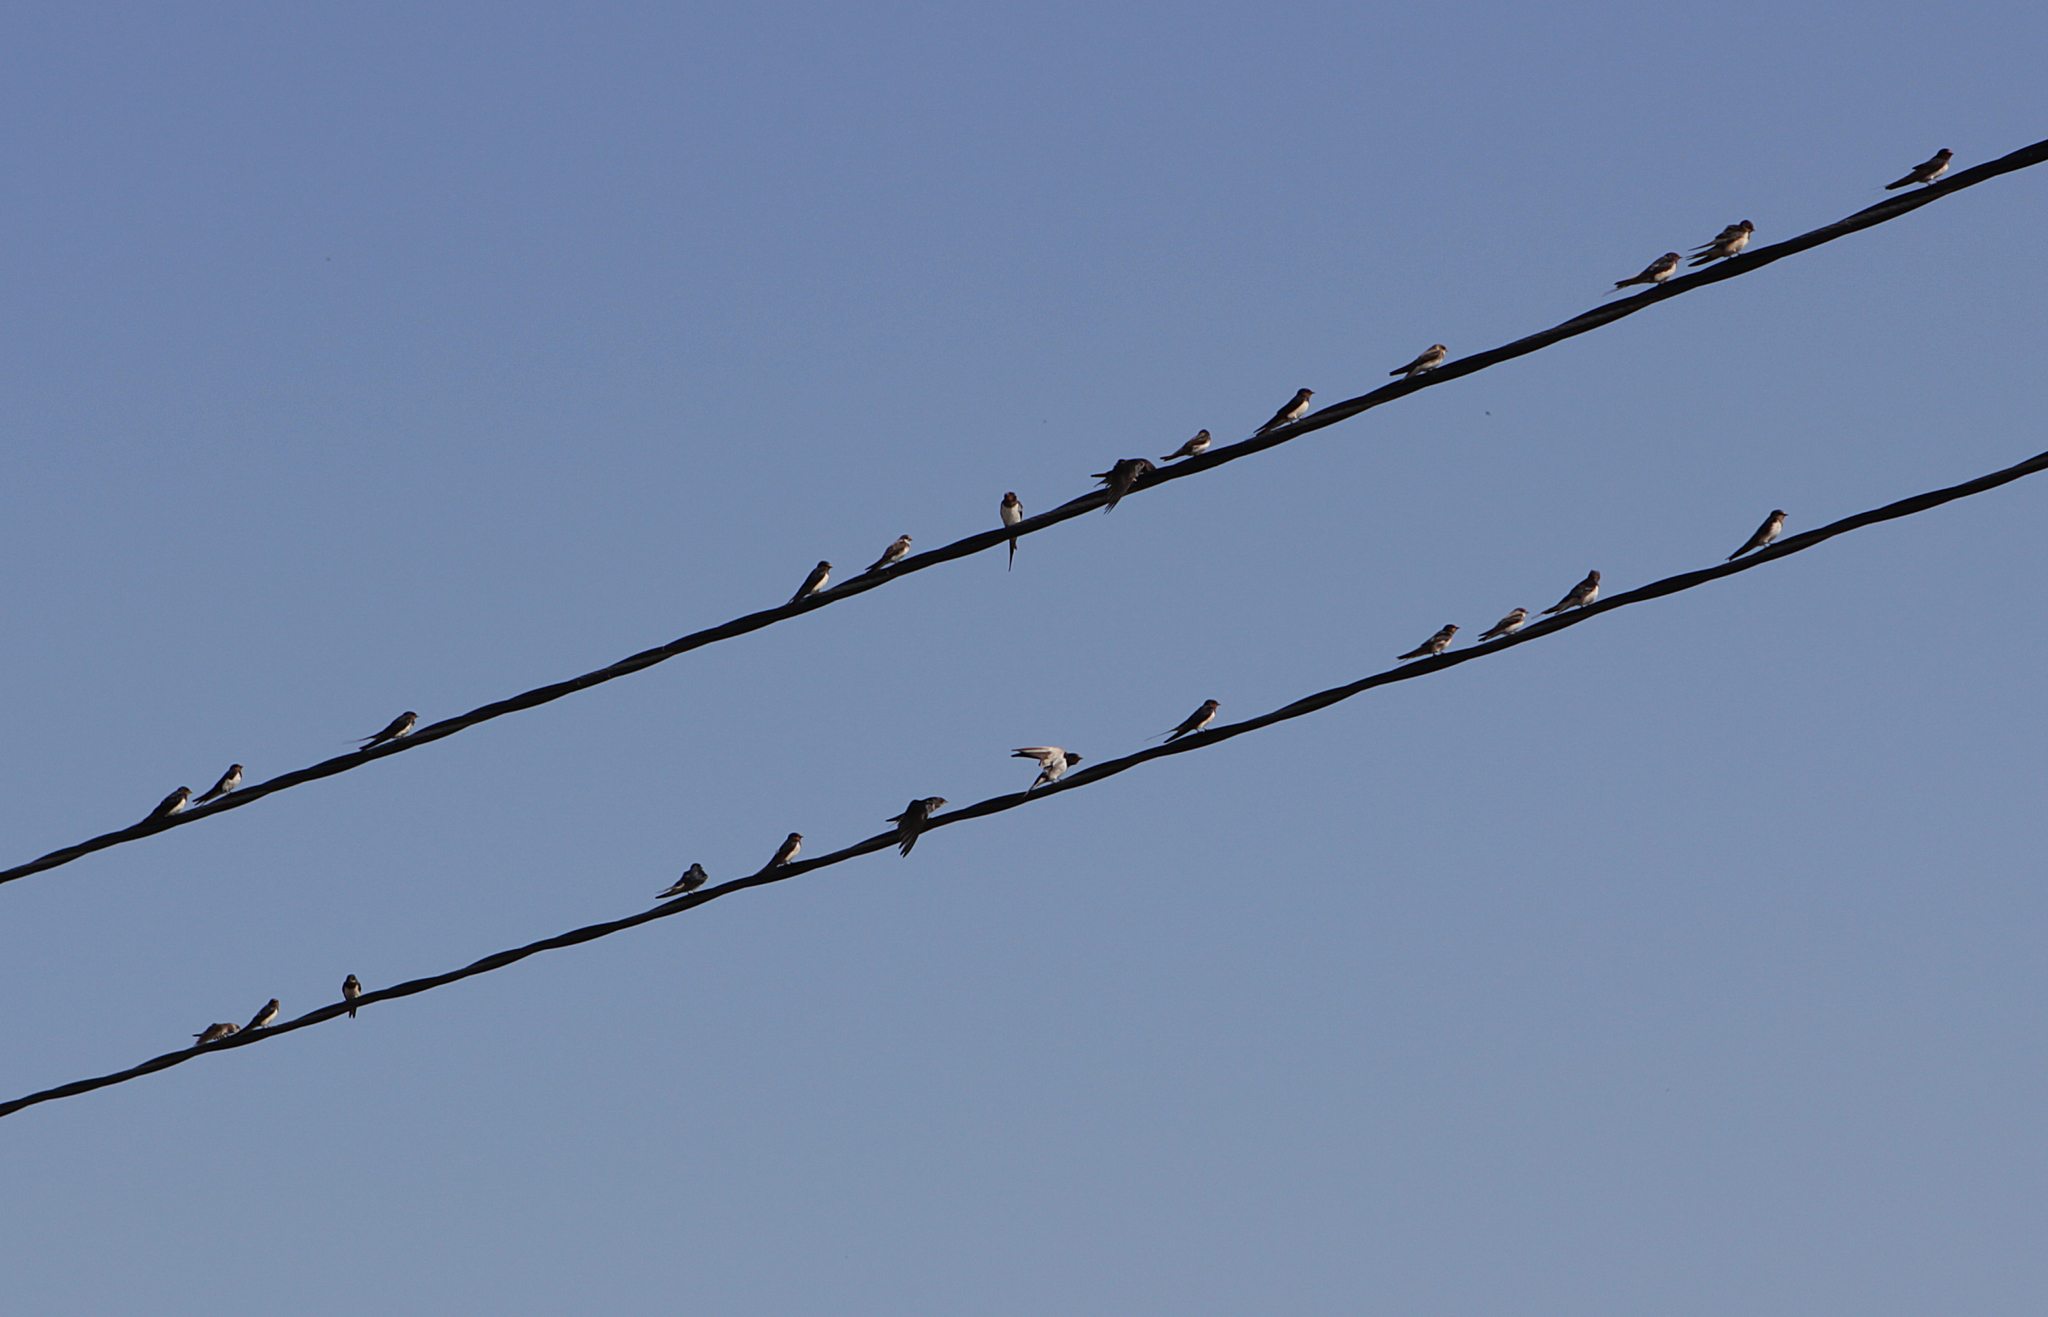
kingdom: Animalia
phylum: Chordata
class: Aves
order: Passeriformes
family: Hirundinidae
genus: Hirundo
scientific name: Hirundo rustica
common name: Barn swallow
